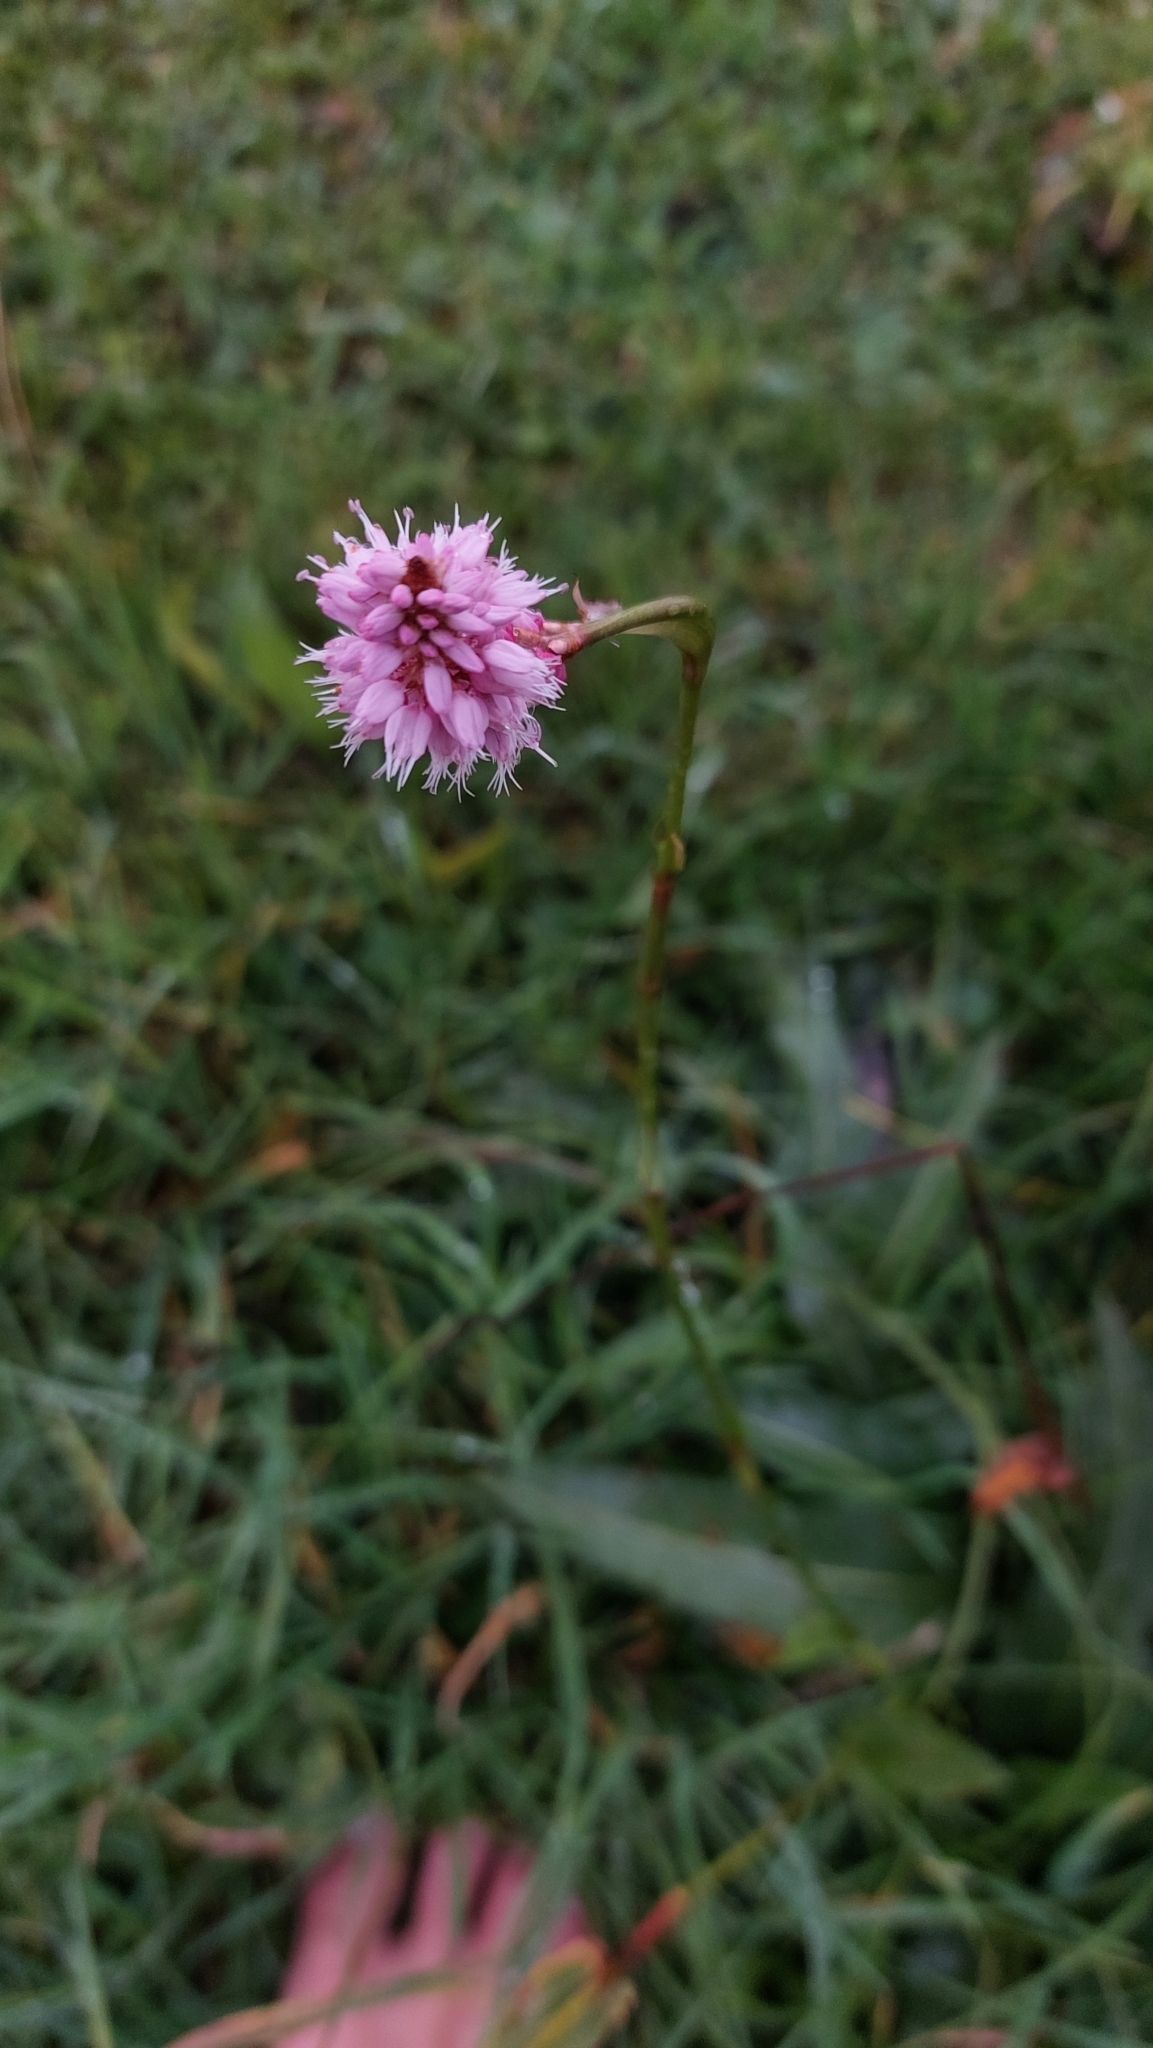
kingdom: Plantae
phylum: Tracheophyta
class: Magnoliopsida
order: Caryophyllales
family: Polygonaceae
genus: Bistorta
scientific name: Bistorta officinalis
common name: Common bistort
